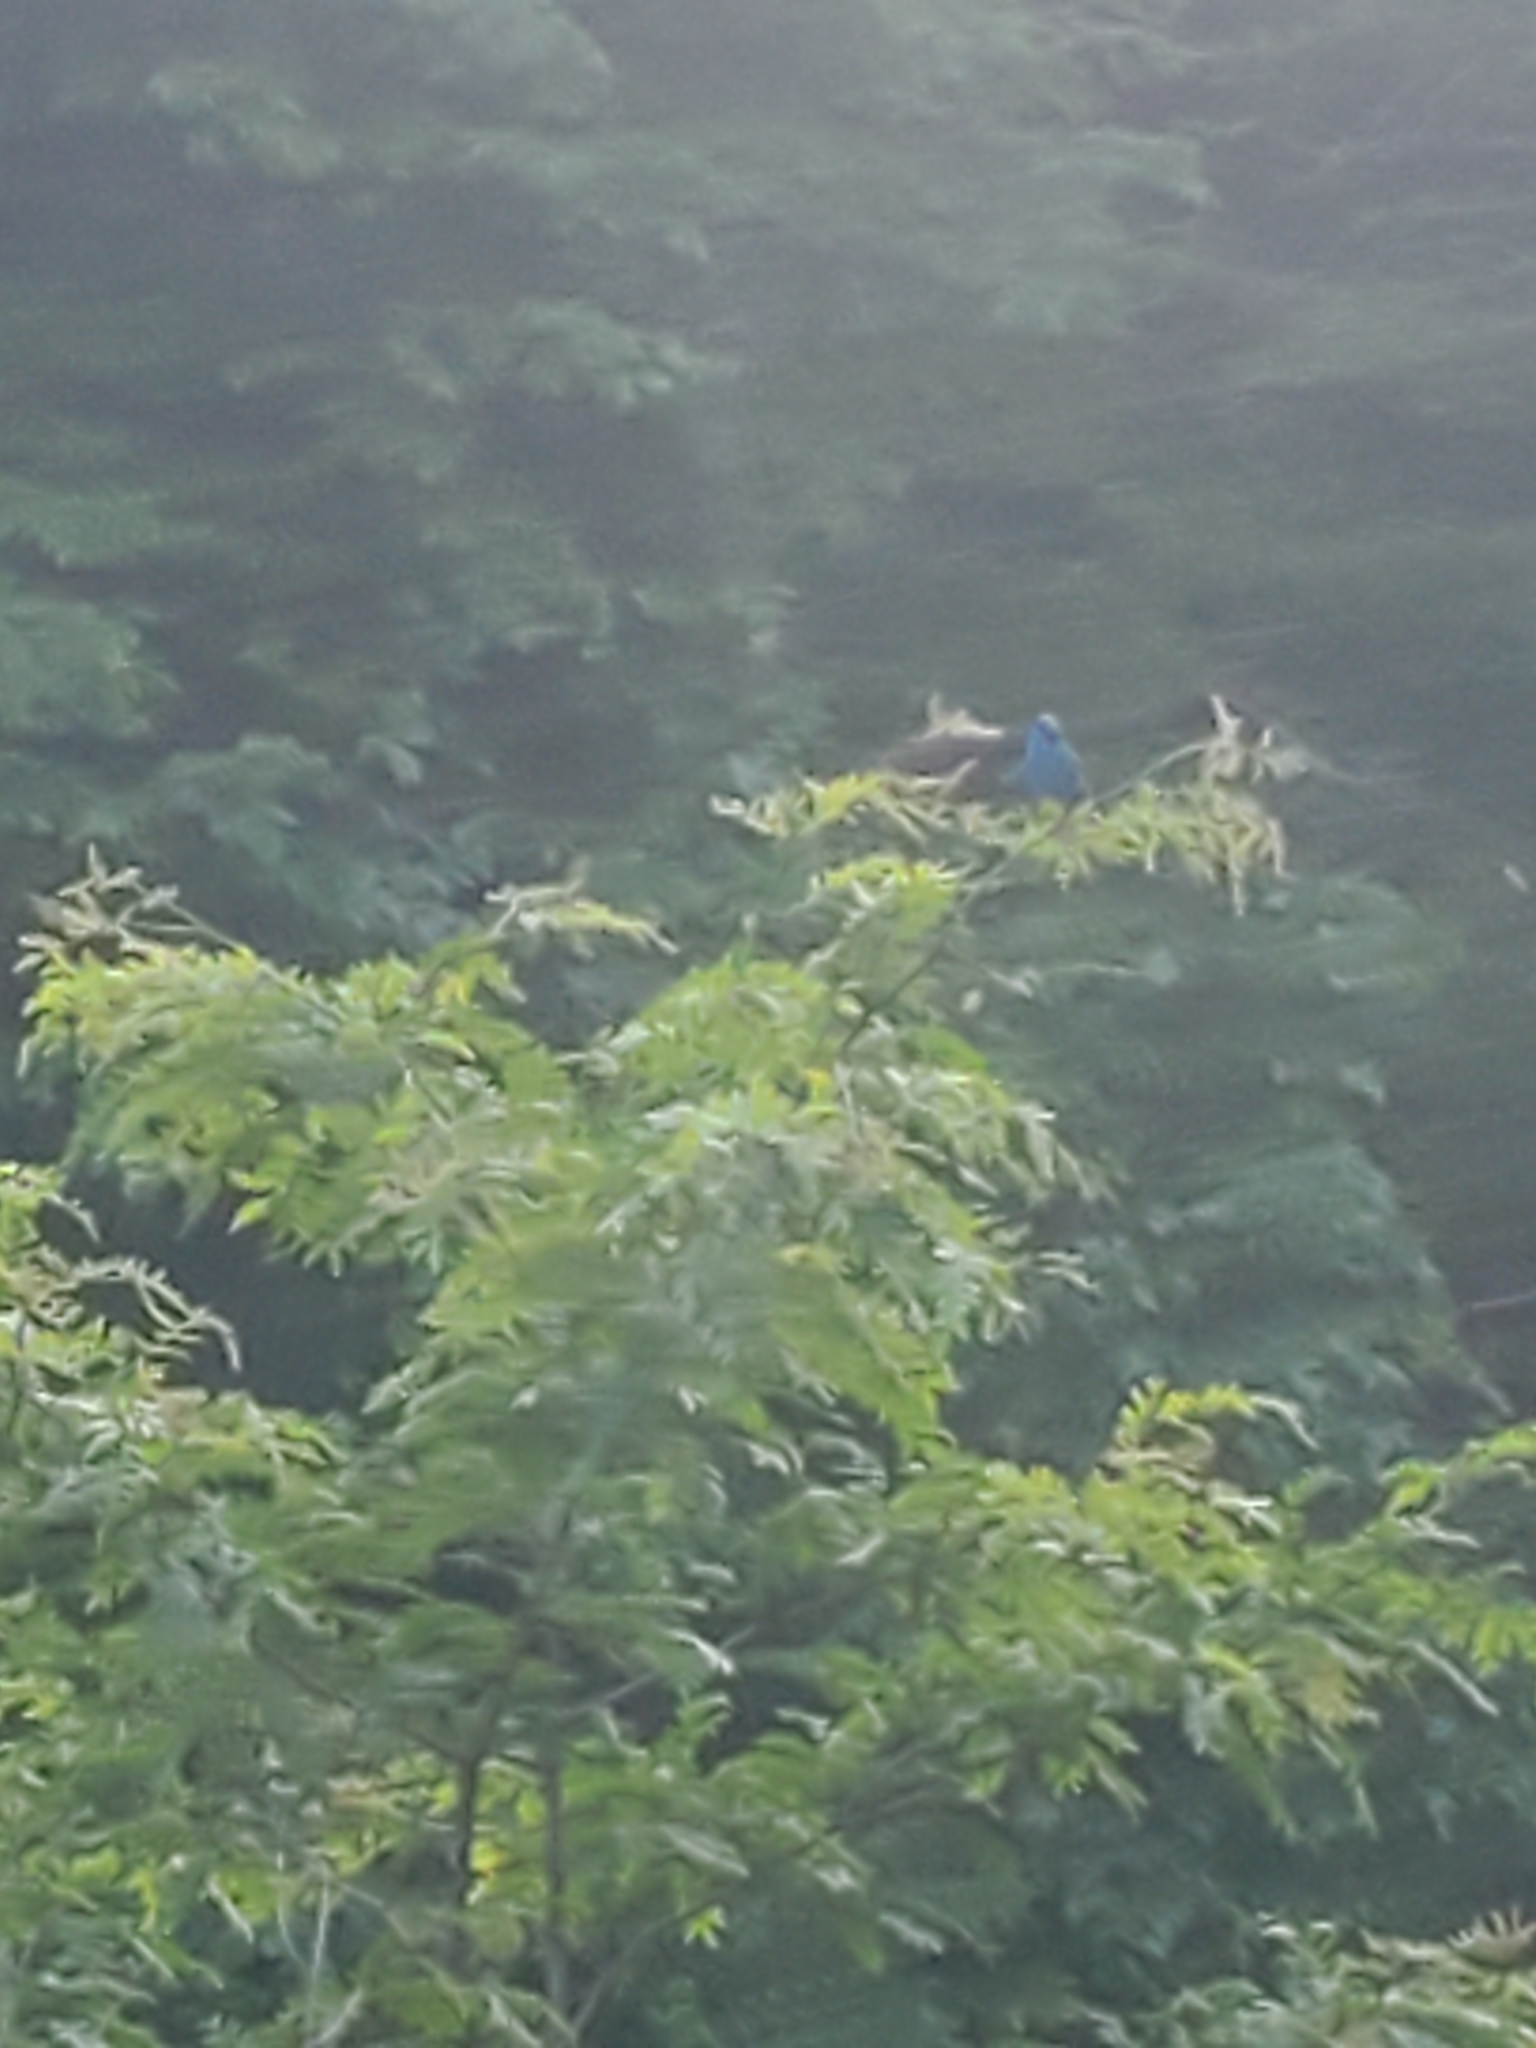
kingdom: Animalia
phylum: Chordata
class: Aves
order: Passeriformes
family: Cardinalidae
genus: Passerina
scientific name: Passerina cyanea
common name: Indigo bunting
